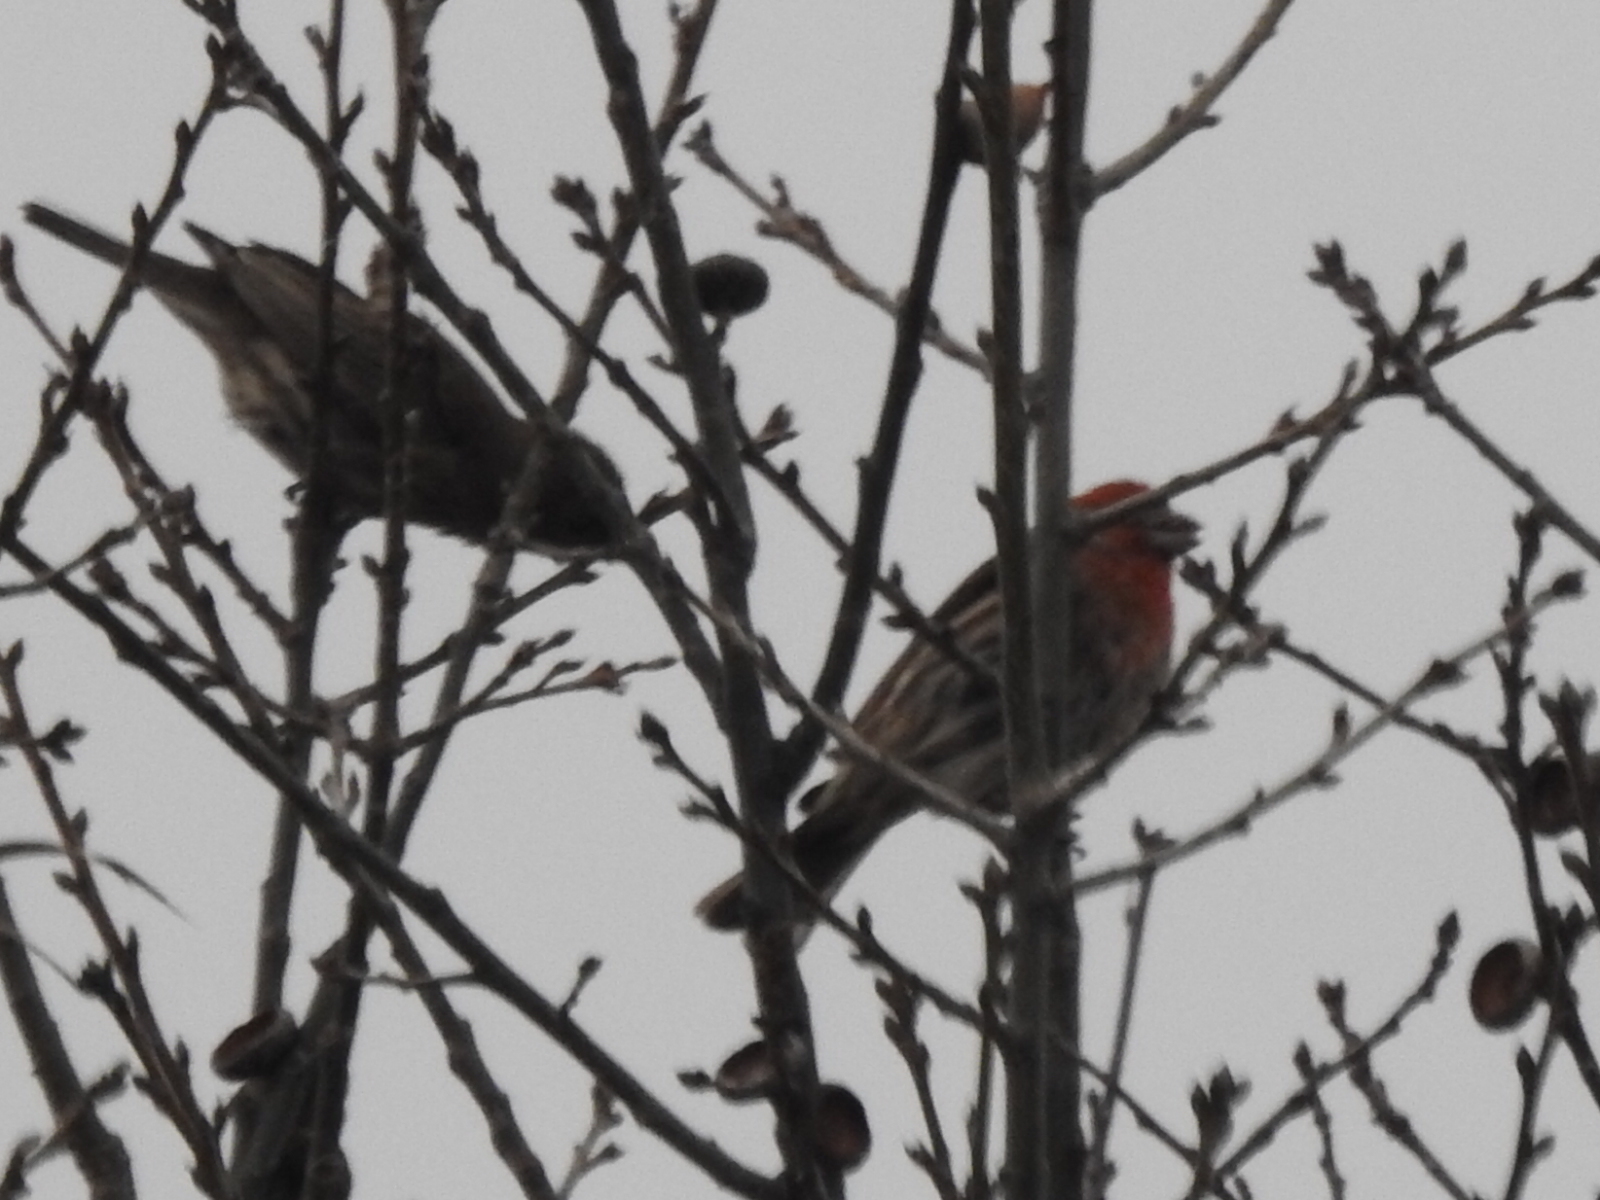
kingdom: Animalia
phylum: Chordata
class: Aves
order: Passeriformes
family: Fringillidae
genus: Haemorhous
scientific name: Haemorhous mexicanus
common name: House finch
